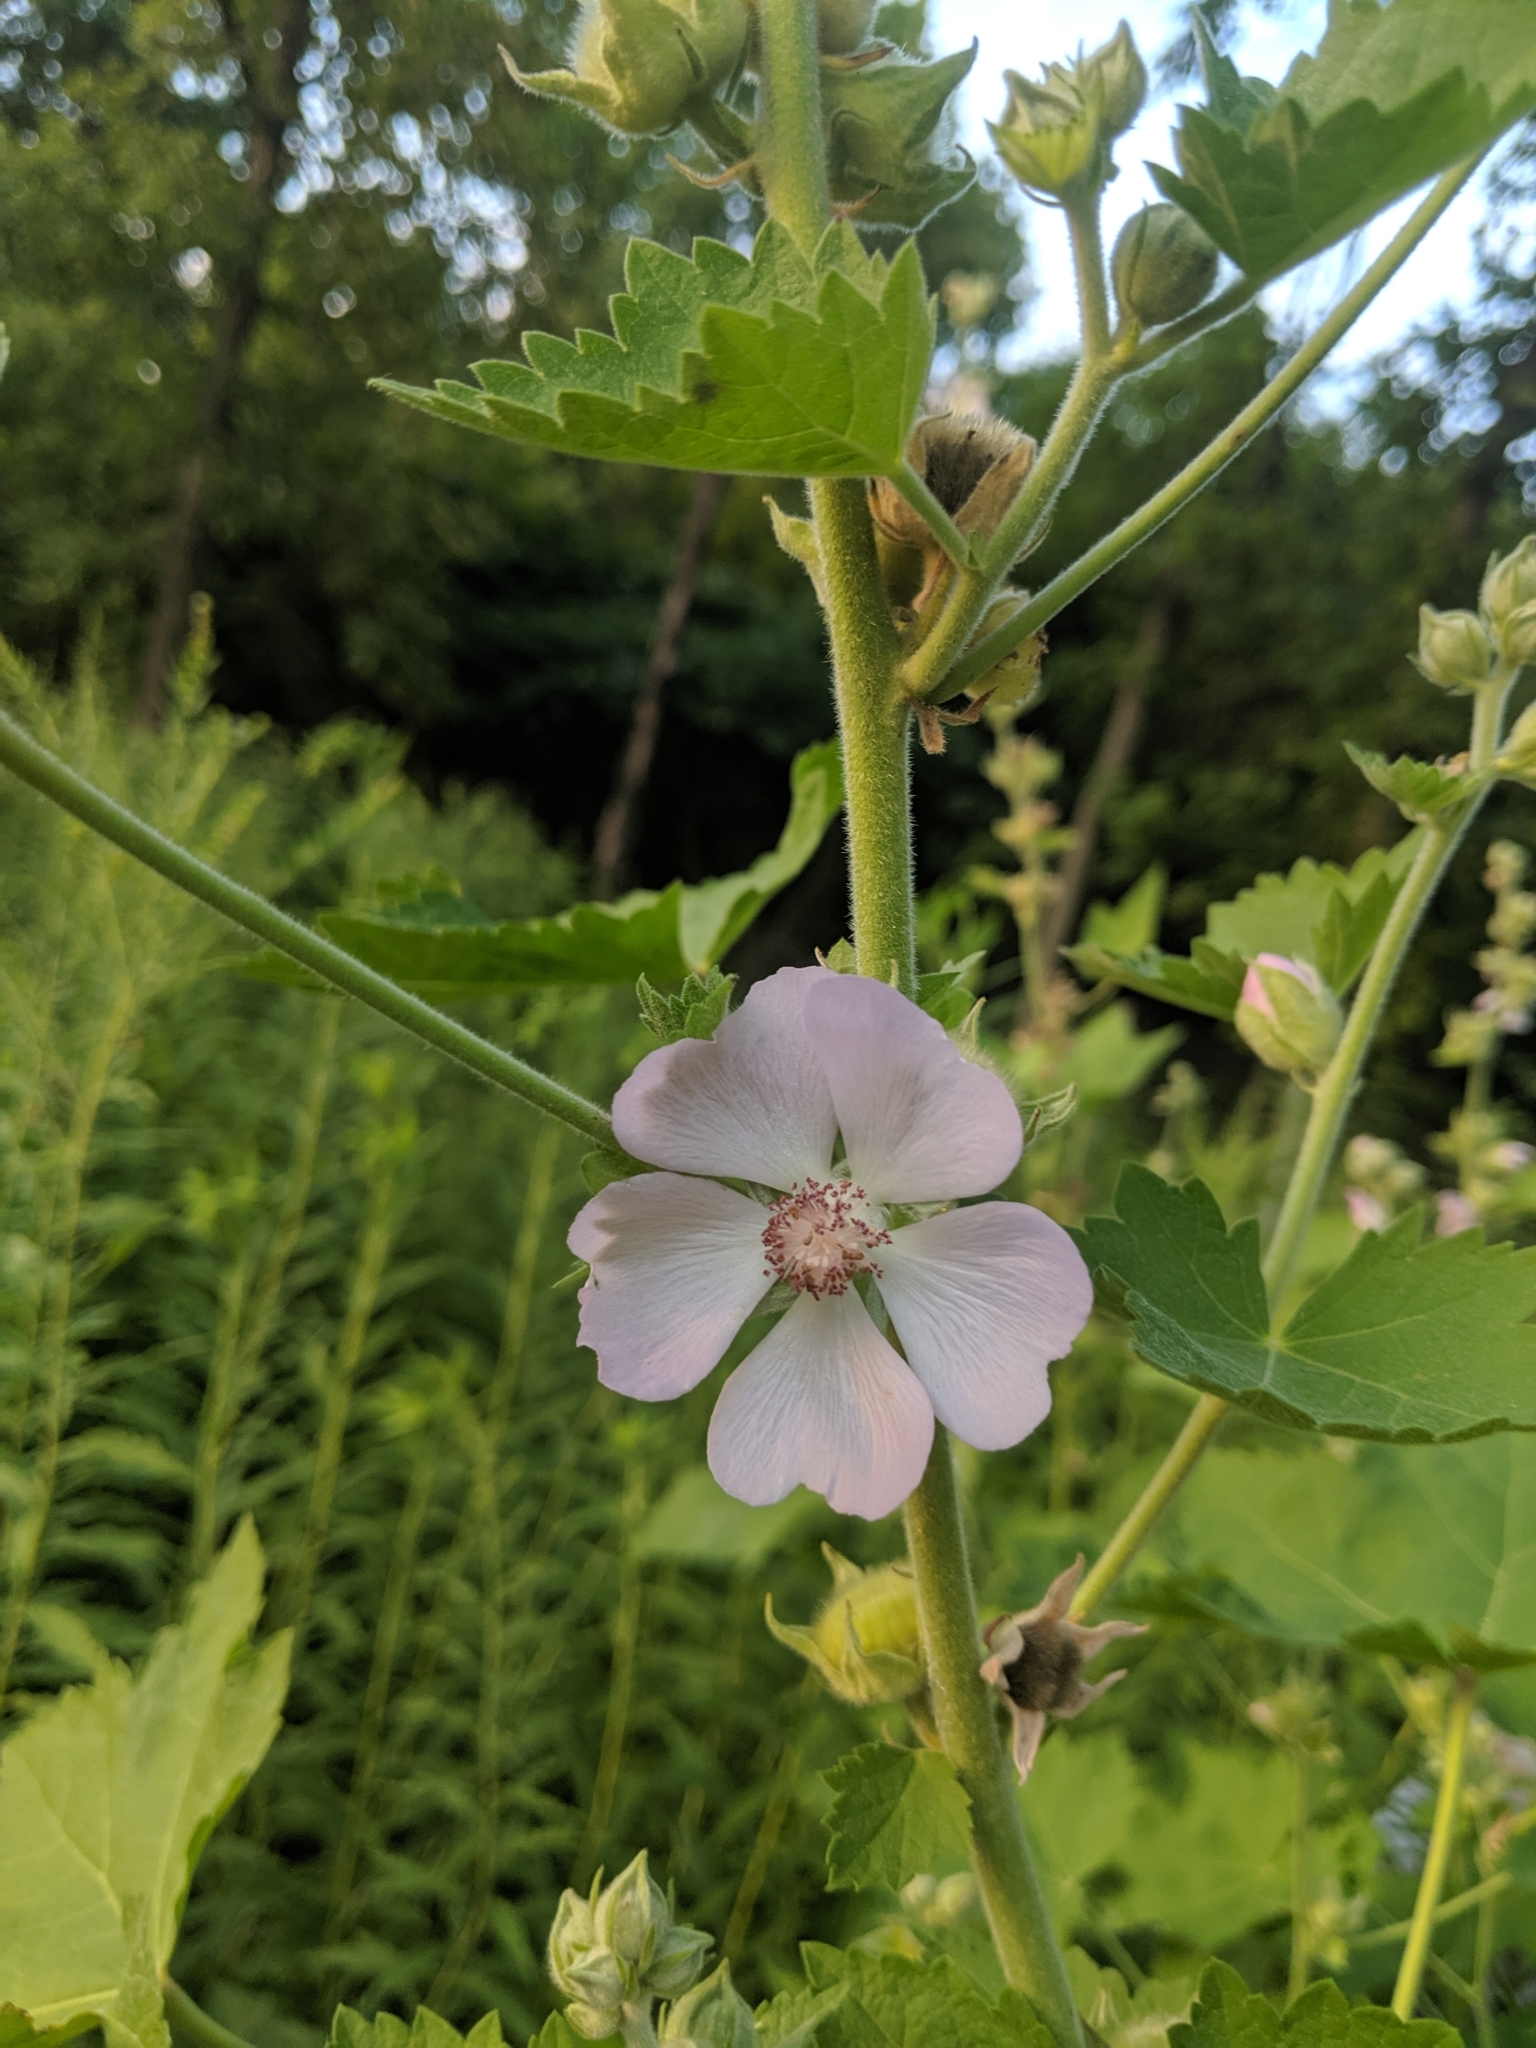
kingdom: Plantae
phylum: Tracheophyta
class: Magnoliopsida
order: Malvales
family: Malvaceae
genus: Iliamna
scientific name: Iliamna remota
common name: Kankakee globe-mallow
